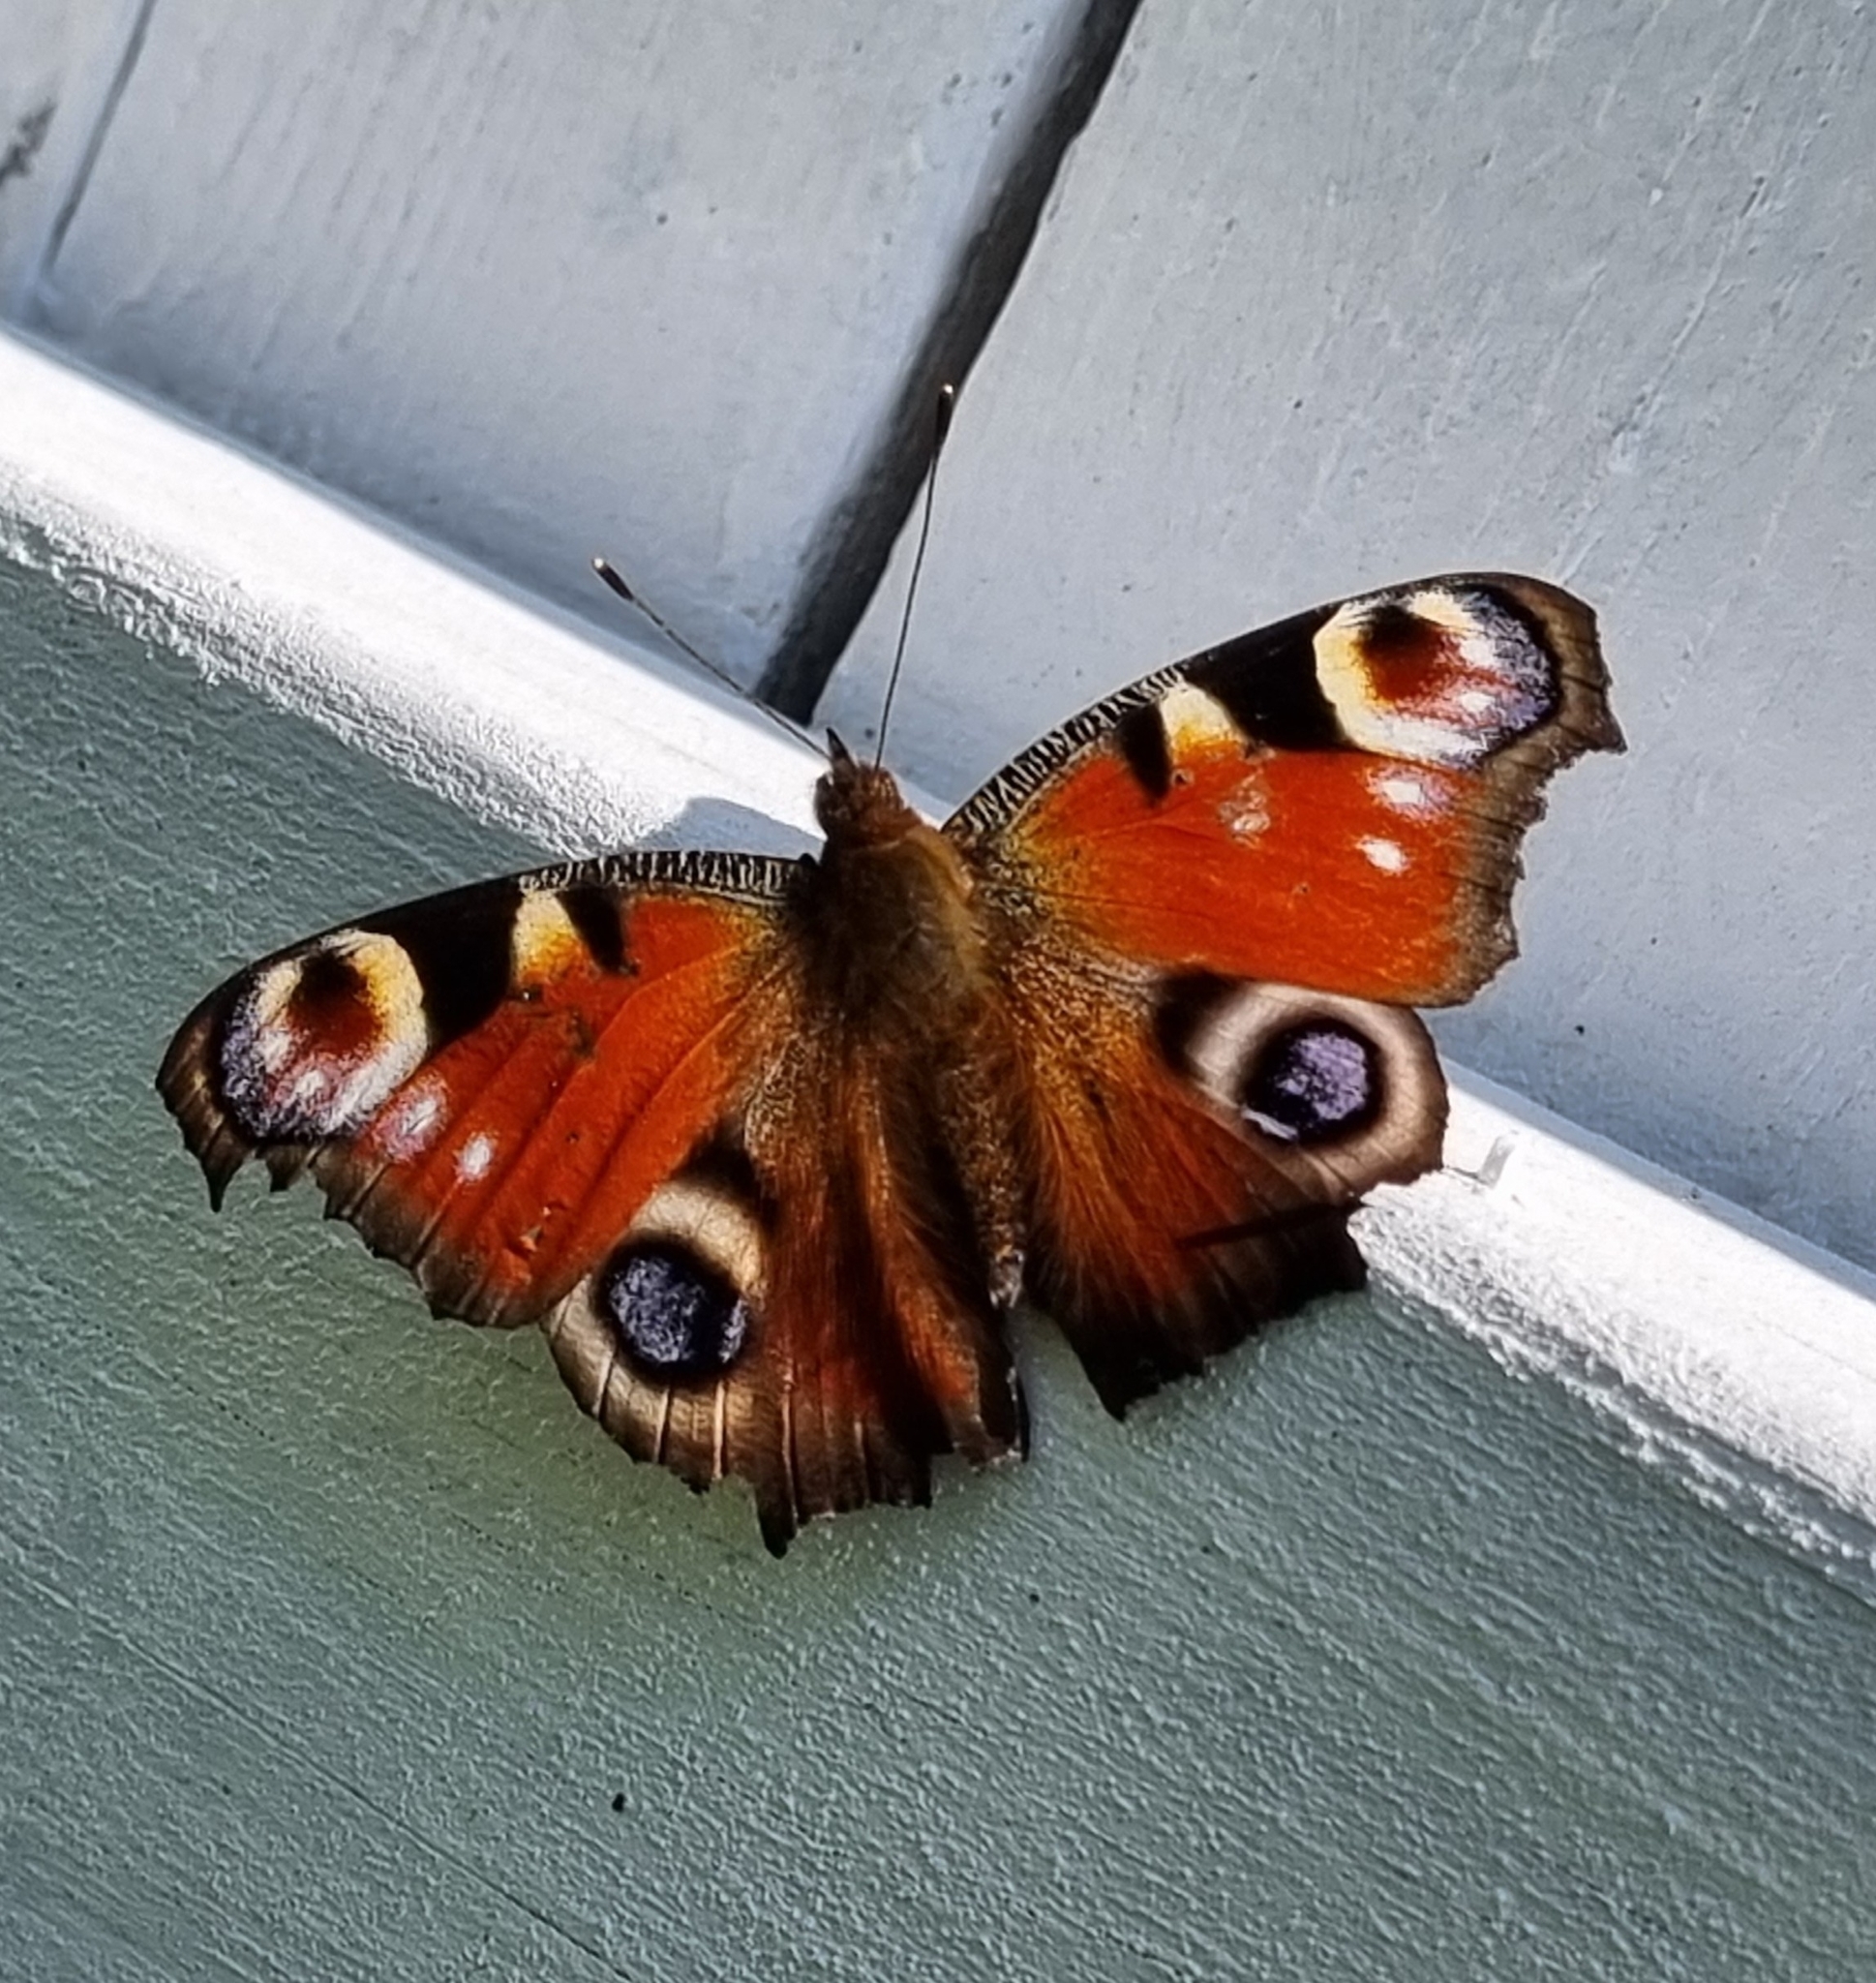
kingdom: Animalia
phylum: Arthropoda
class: Insecta
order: Lepidoptera
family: Nymphalidae
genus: Aglais
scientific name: Aglais io
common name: Peacock
